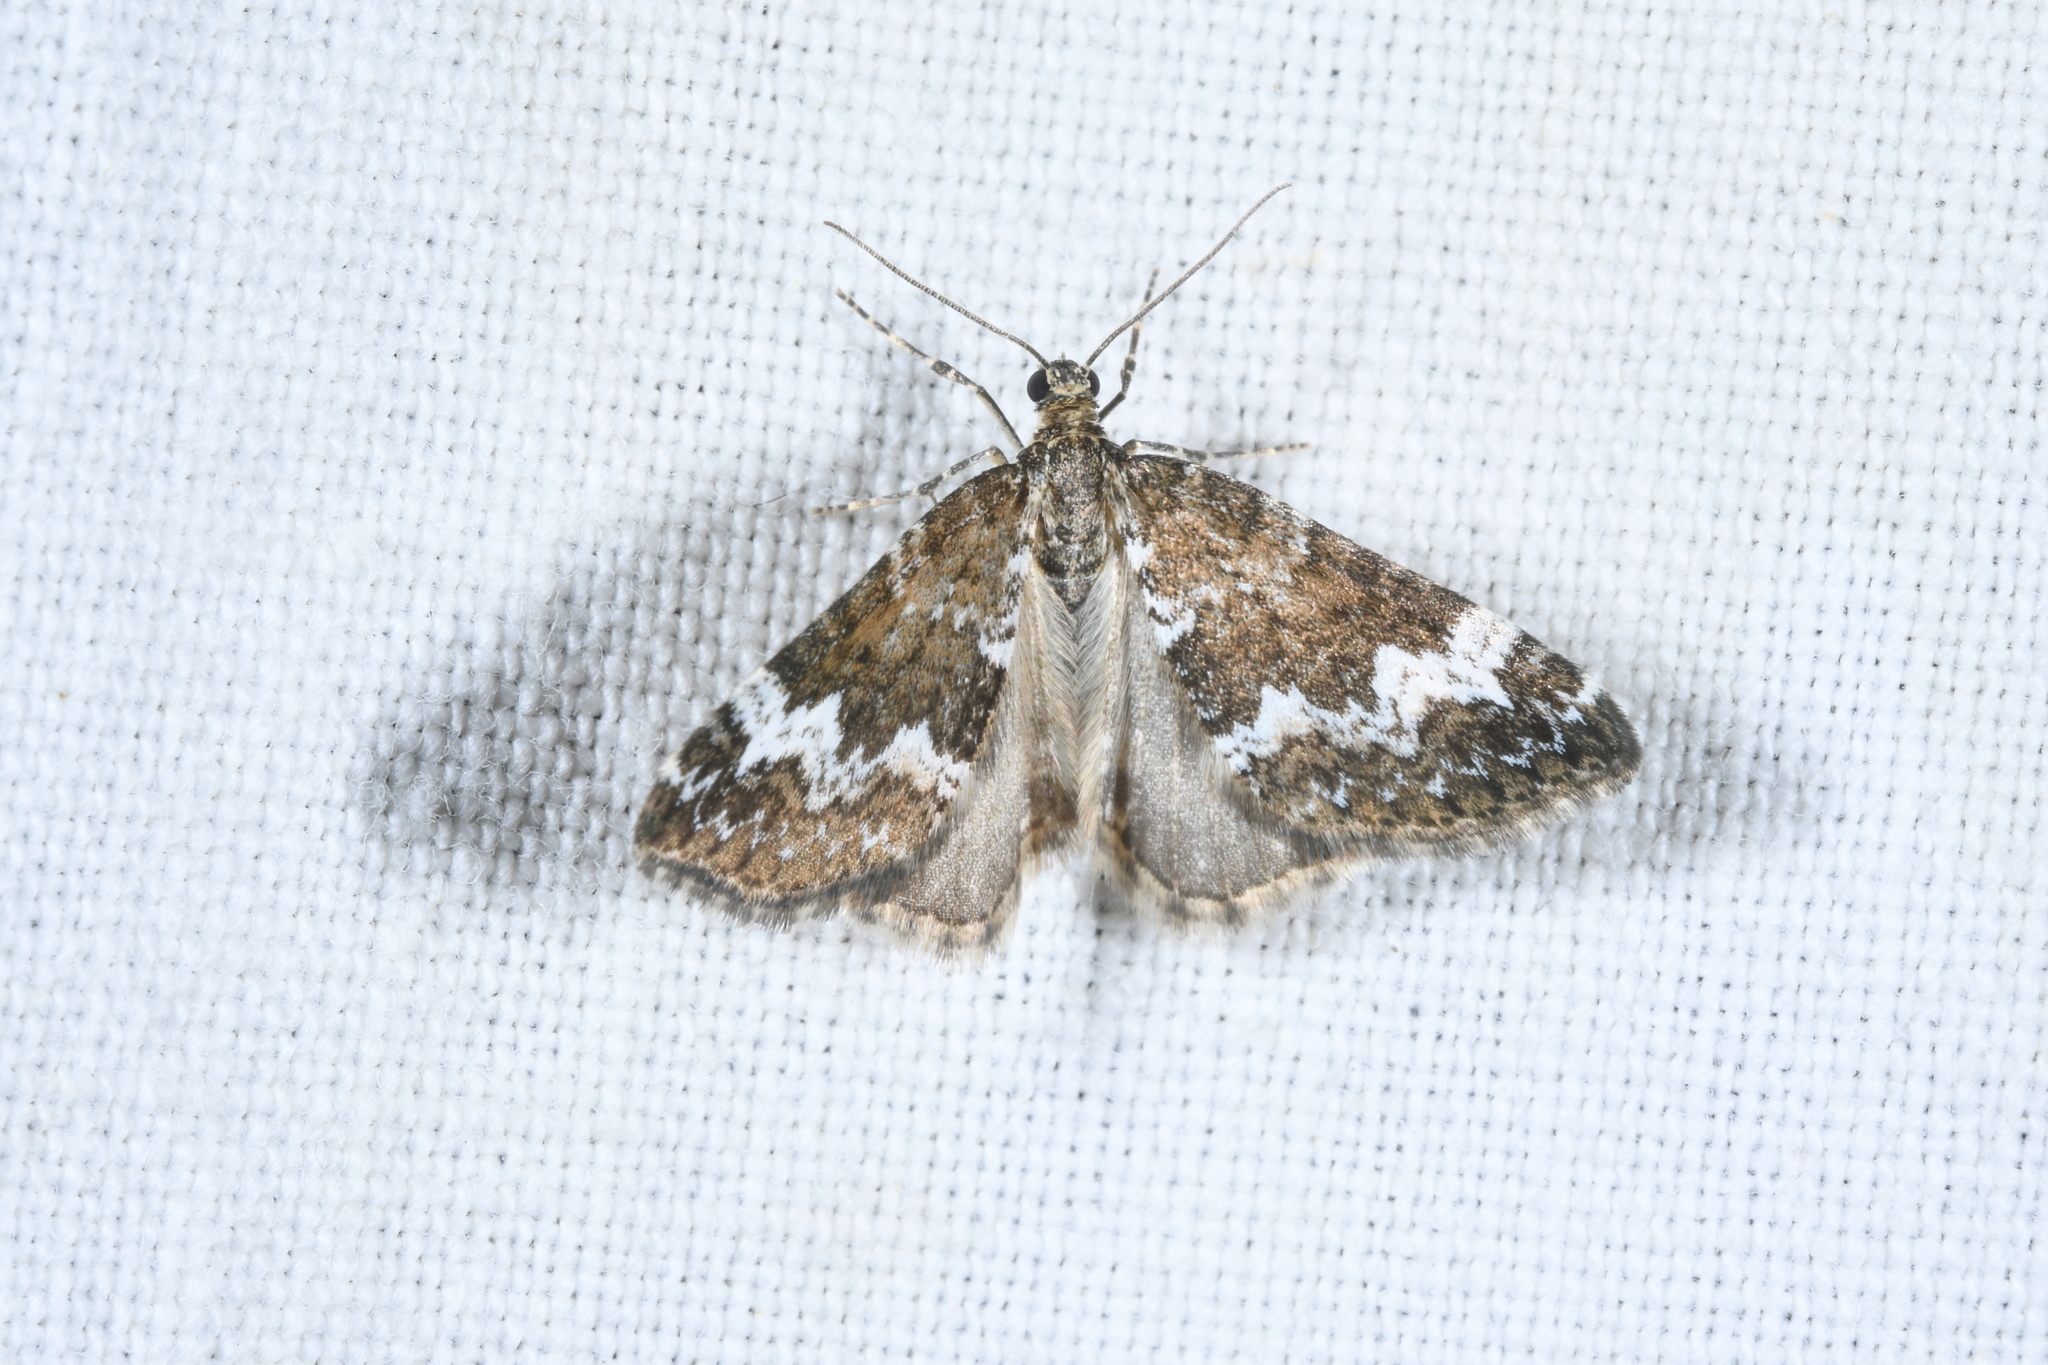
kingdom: Animalia
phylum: Arthropoda
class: Insecta
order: Lepidoptera
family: Geometridae
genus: Perizoma
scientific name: Perizoma alchemillata
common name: Small rivulet
